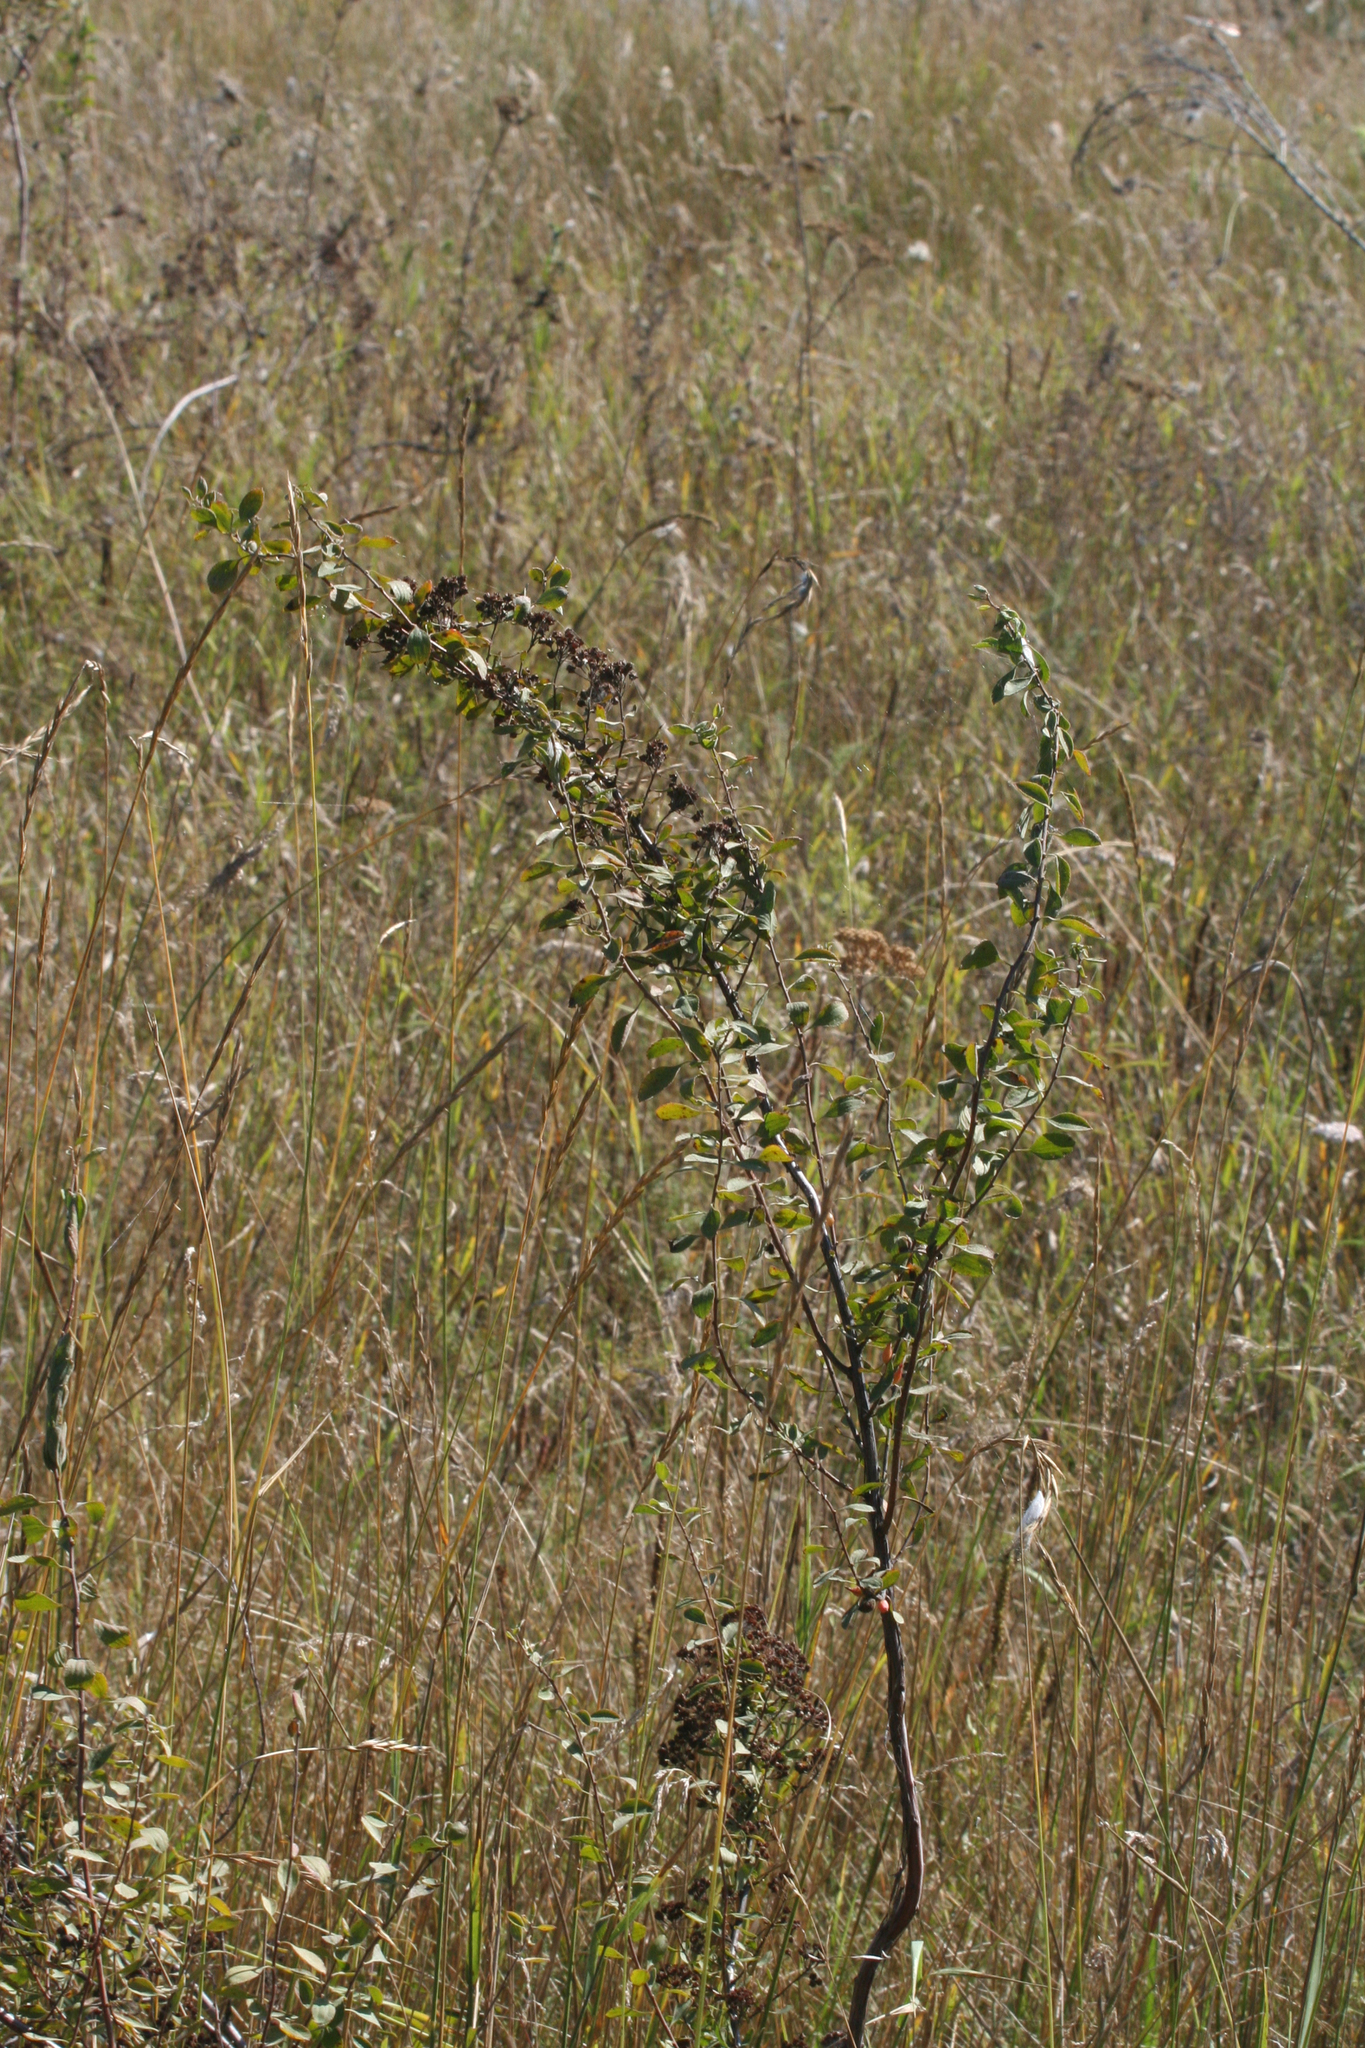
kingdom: Plantae
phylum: Tracheophyta
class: Magnoliopsida
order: Rosales
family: Rosaceae
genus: Spiraea
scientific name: Spiraea crenata
